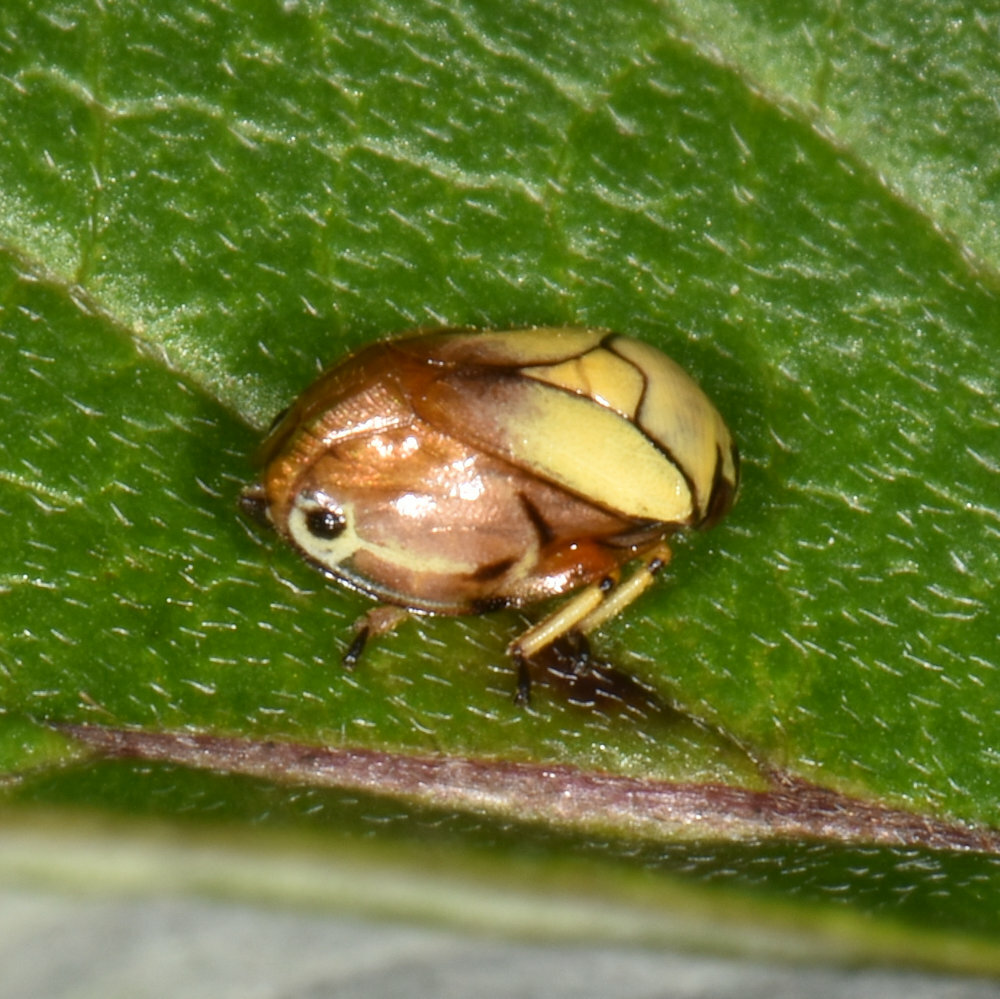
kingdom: Animalia
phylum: Arthropoda
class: Insecta
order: Hemiptera
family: Clastopteridae
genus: Clastoptera
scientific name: Clastoptera proteus
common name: Dogwood spittlebug
